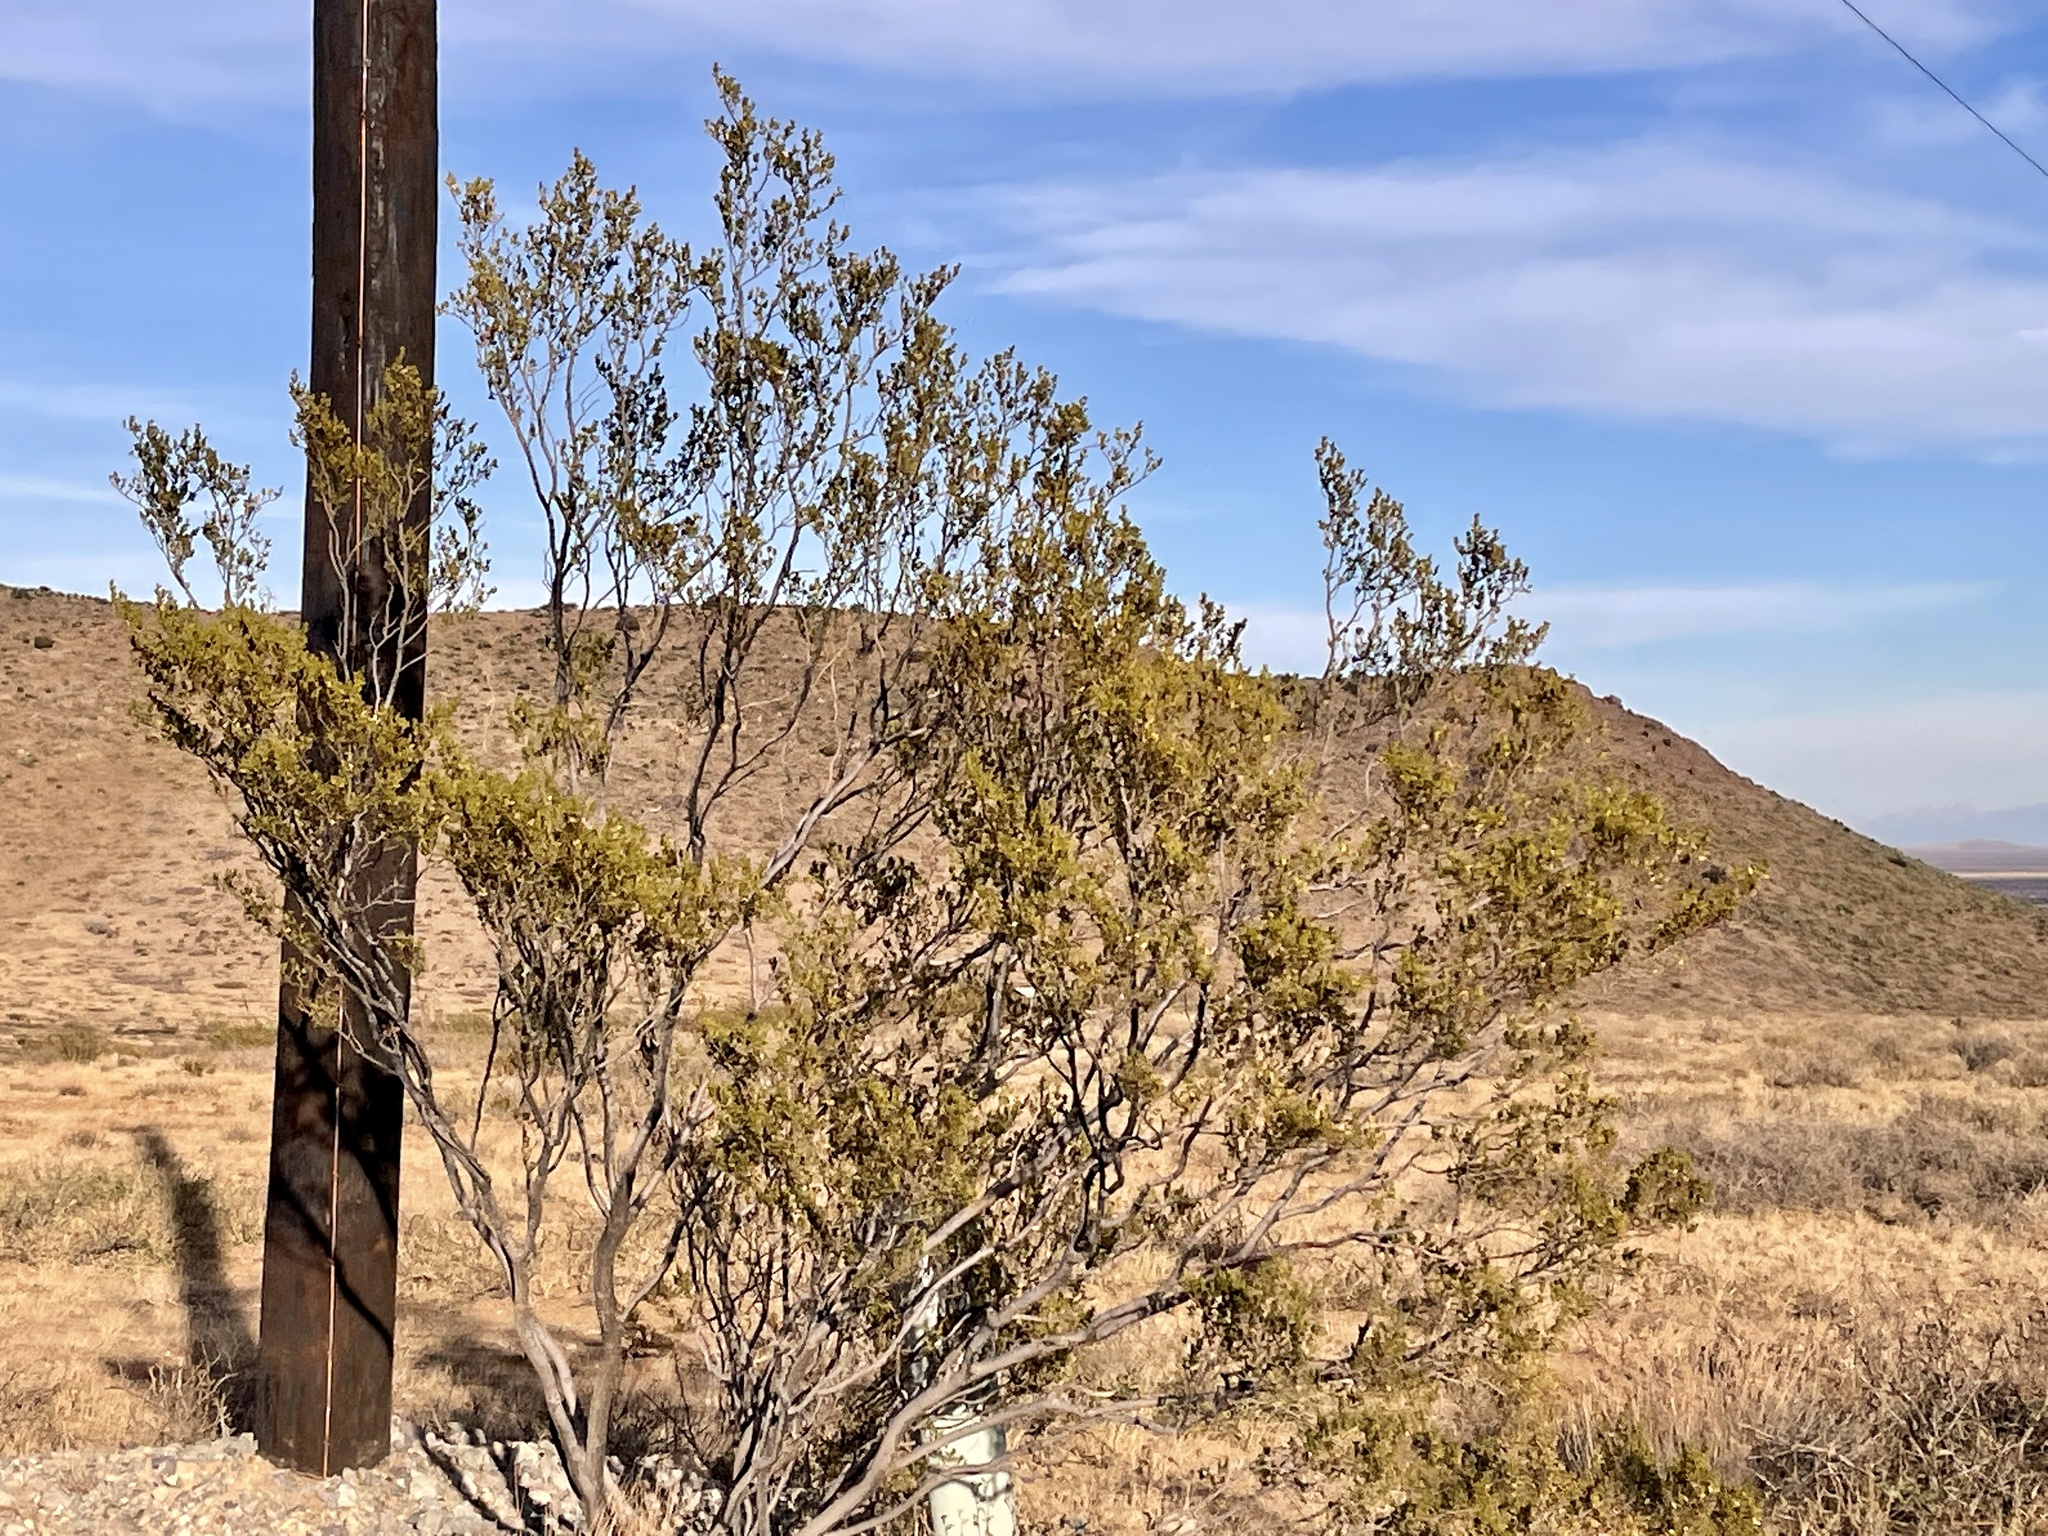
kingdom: Plantae
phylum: Tracheophyta
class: Magnoliopsida
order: Zygophyllales
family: Zygophyllaceae
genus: Larrea
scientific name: Larrea tridentata
